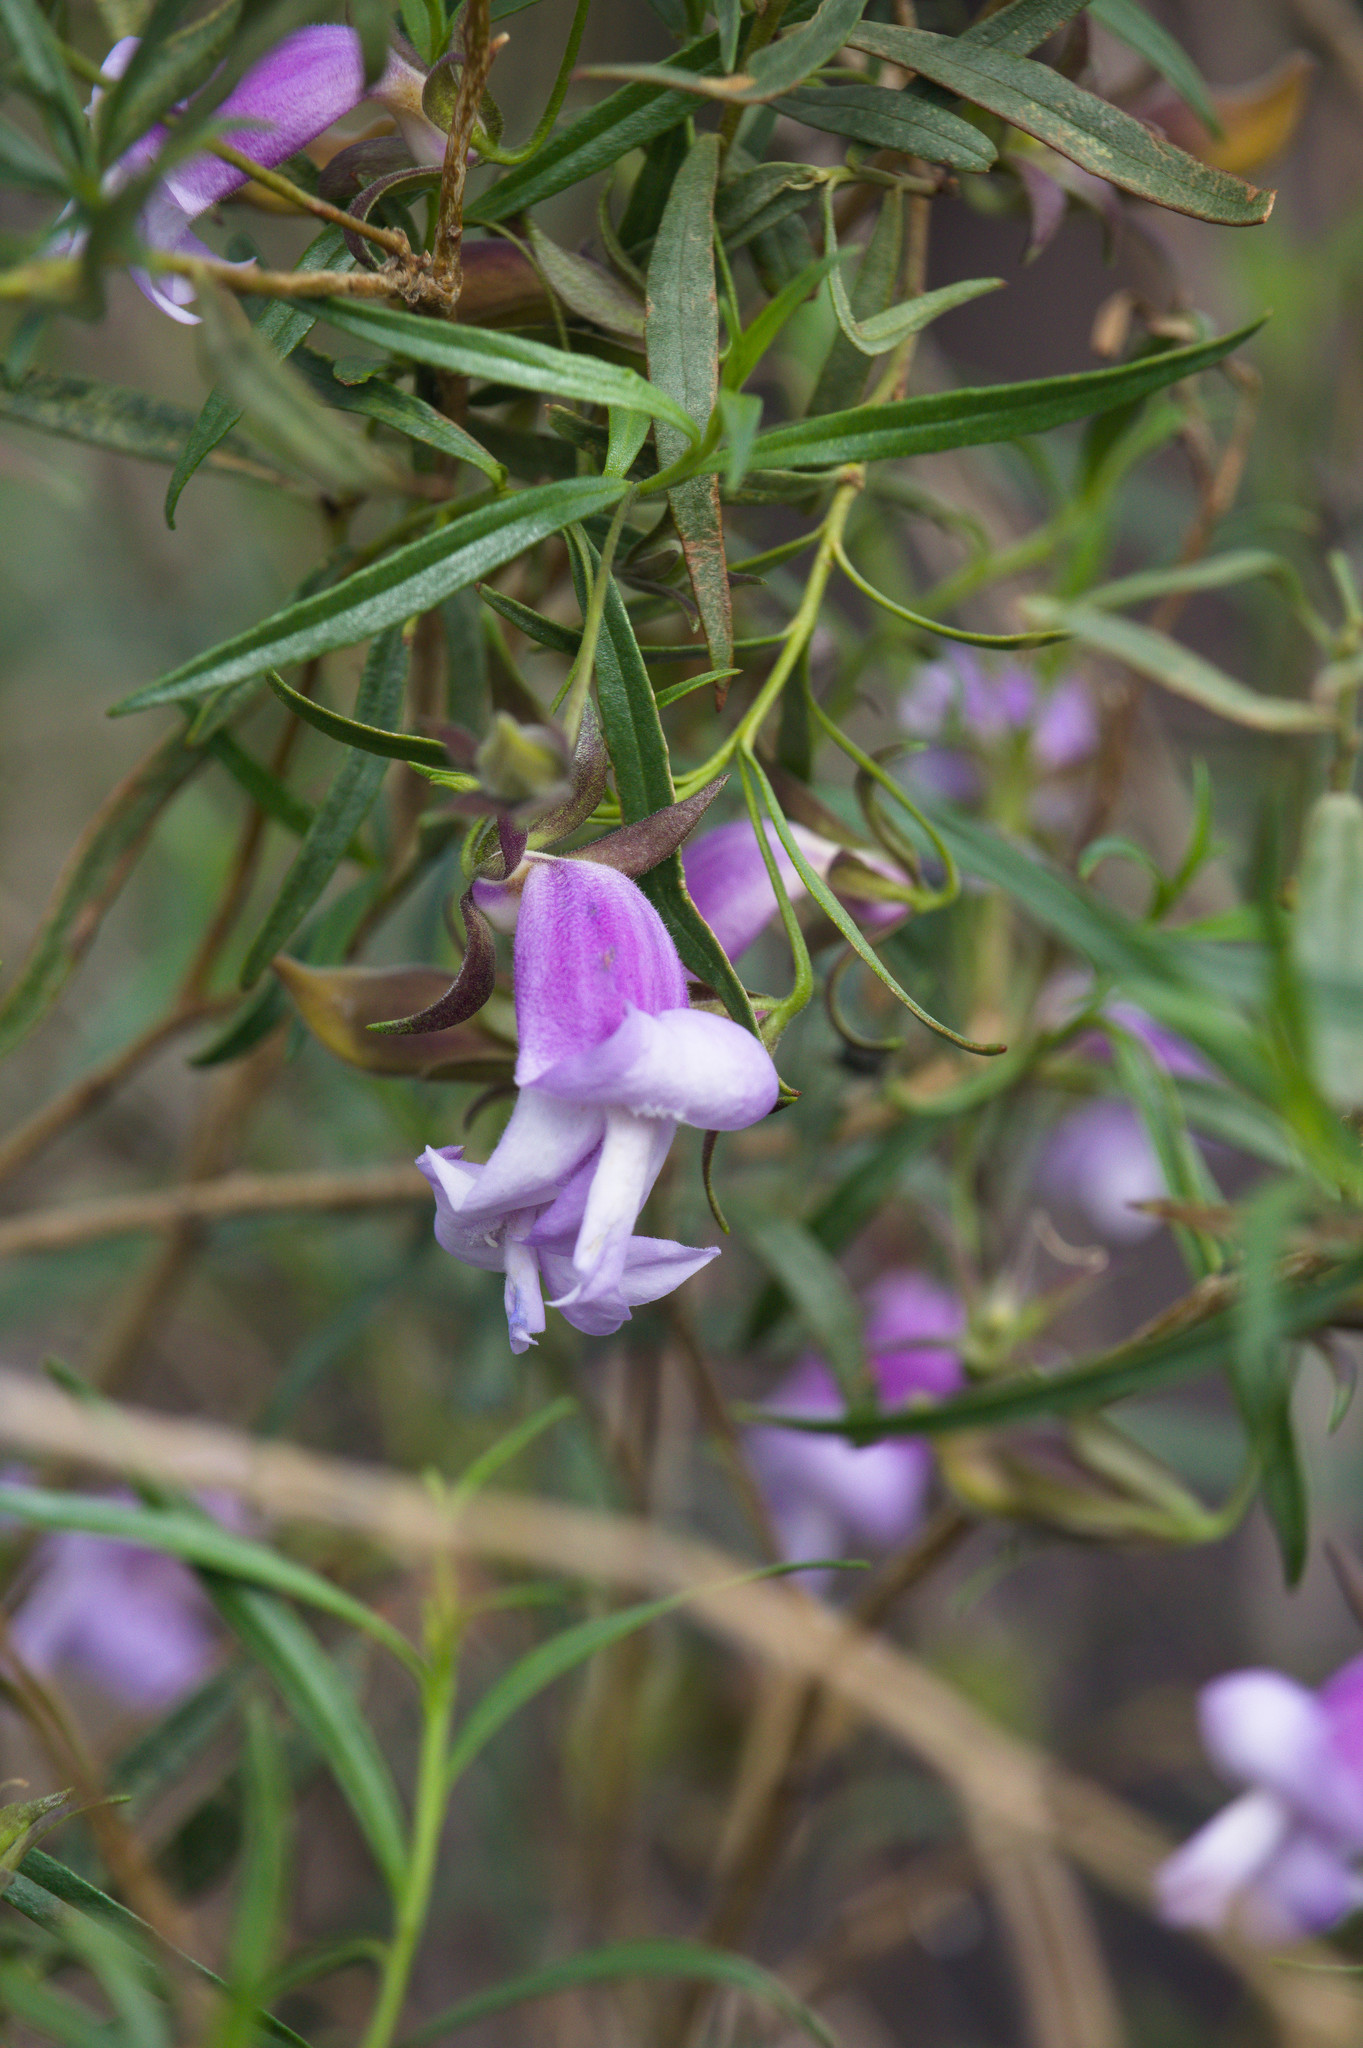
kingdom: Plantae
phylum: Tracheophyta
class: Magnoliopsida
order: Lamiales
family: Scrophulariaceae
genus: Eremophila
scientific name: Eremophila clarkei
